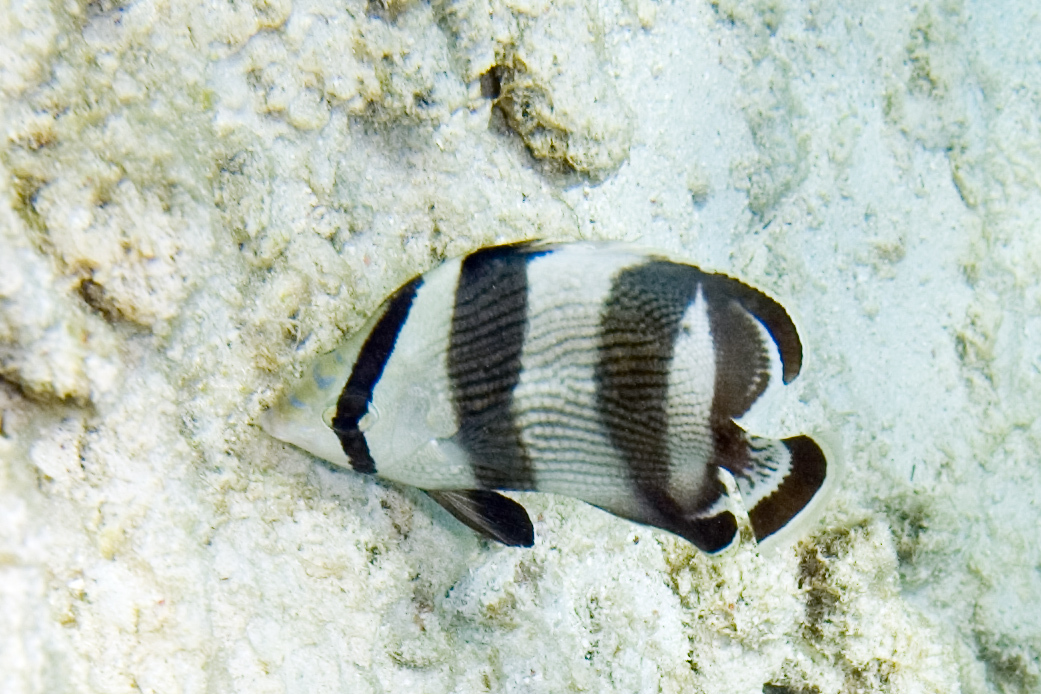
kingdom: Animalia
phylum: Chordata
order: Perciformes
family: Chaetodontidae
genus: Chaetodon
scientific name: Chaetodon striatus
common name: Banded butterflyfish
